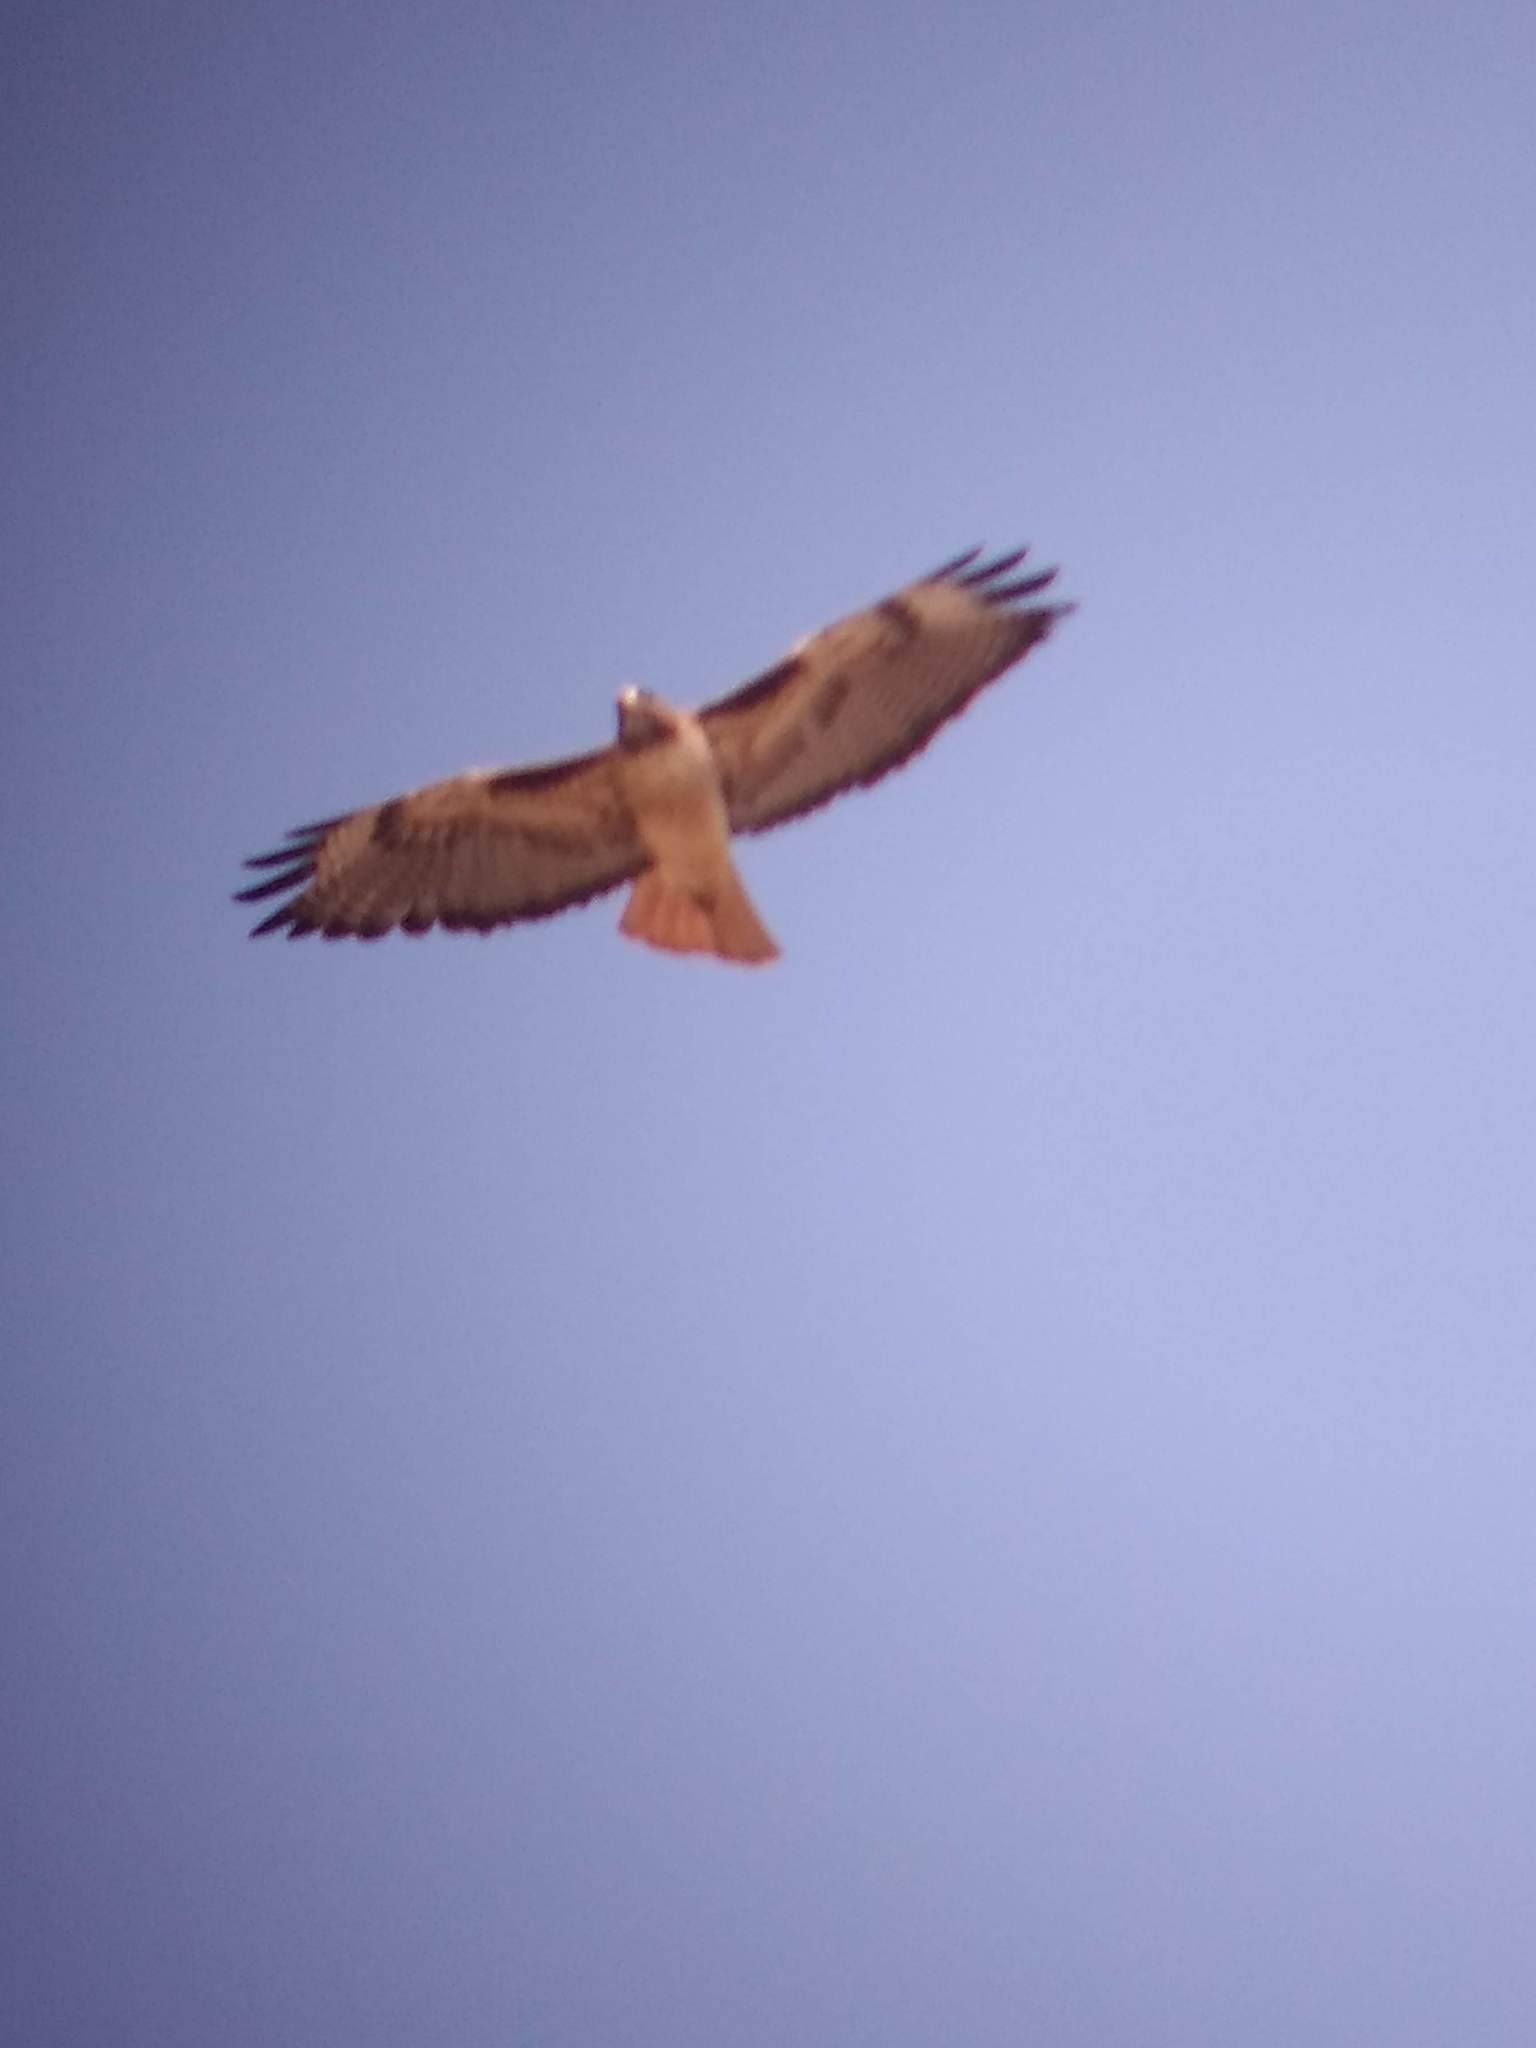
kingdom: Animalia
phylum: Chordata
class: Aves
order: Accipitriformes
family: Accipitridae
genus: Buteo
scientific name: Buteo jamaicensis
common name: Red-tailed hawk
